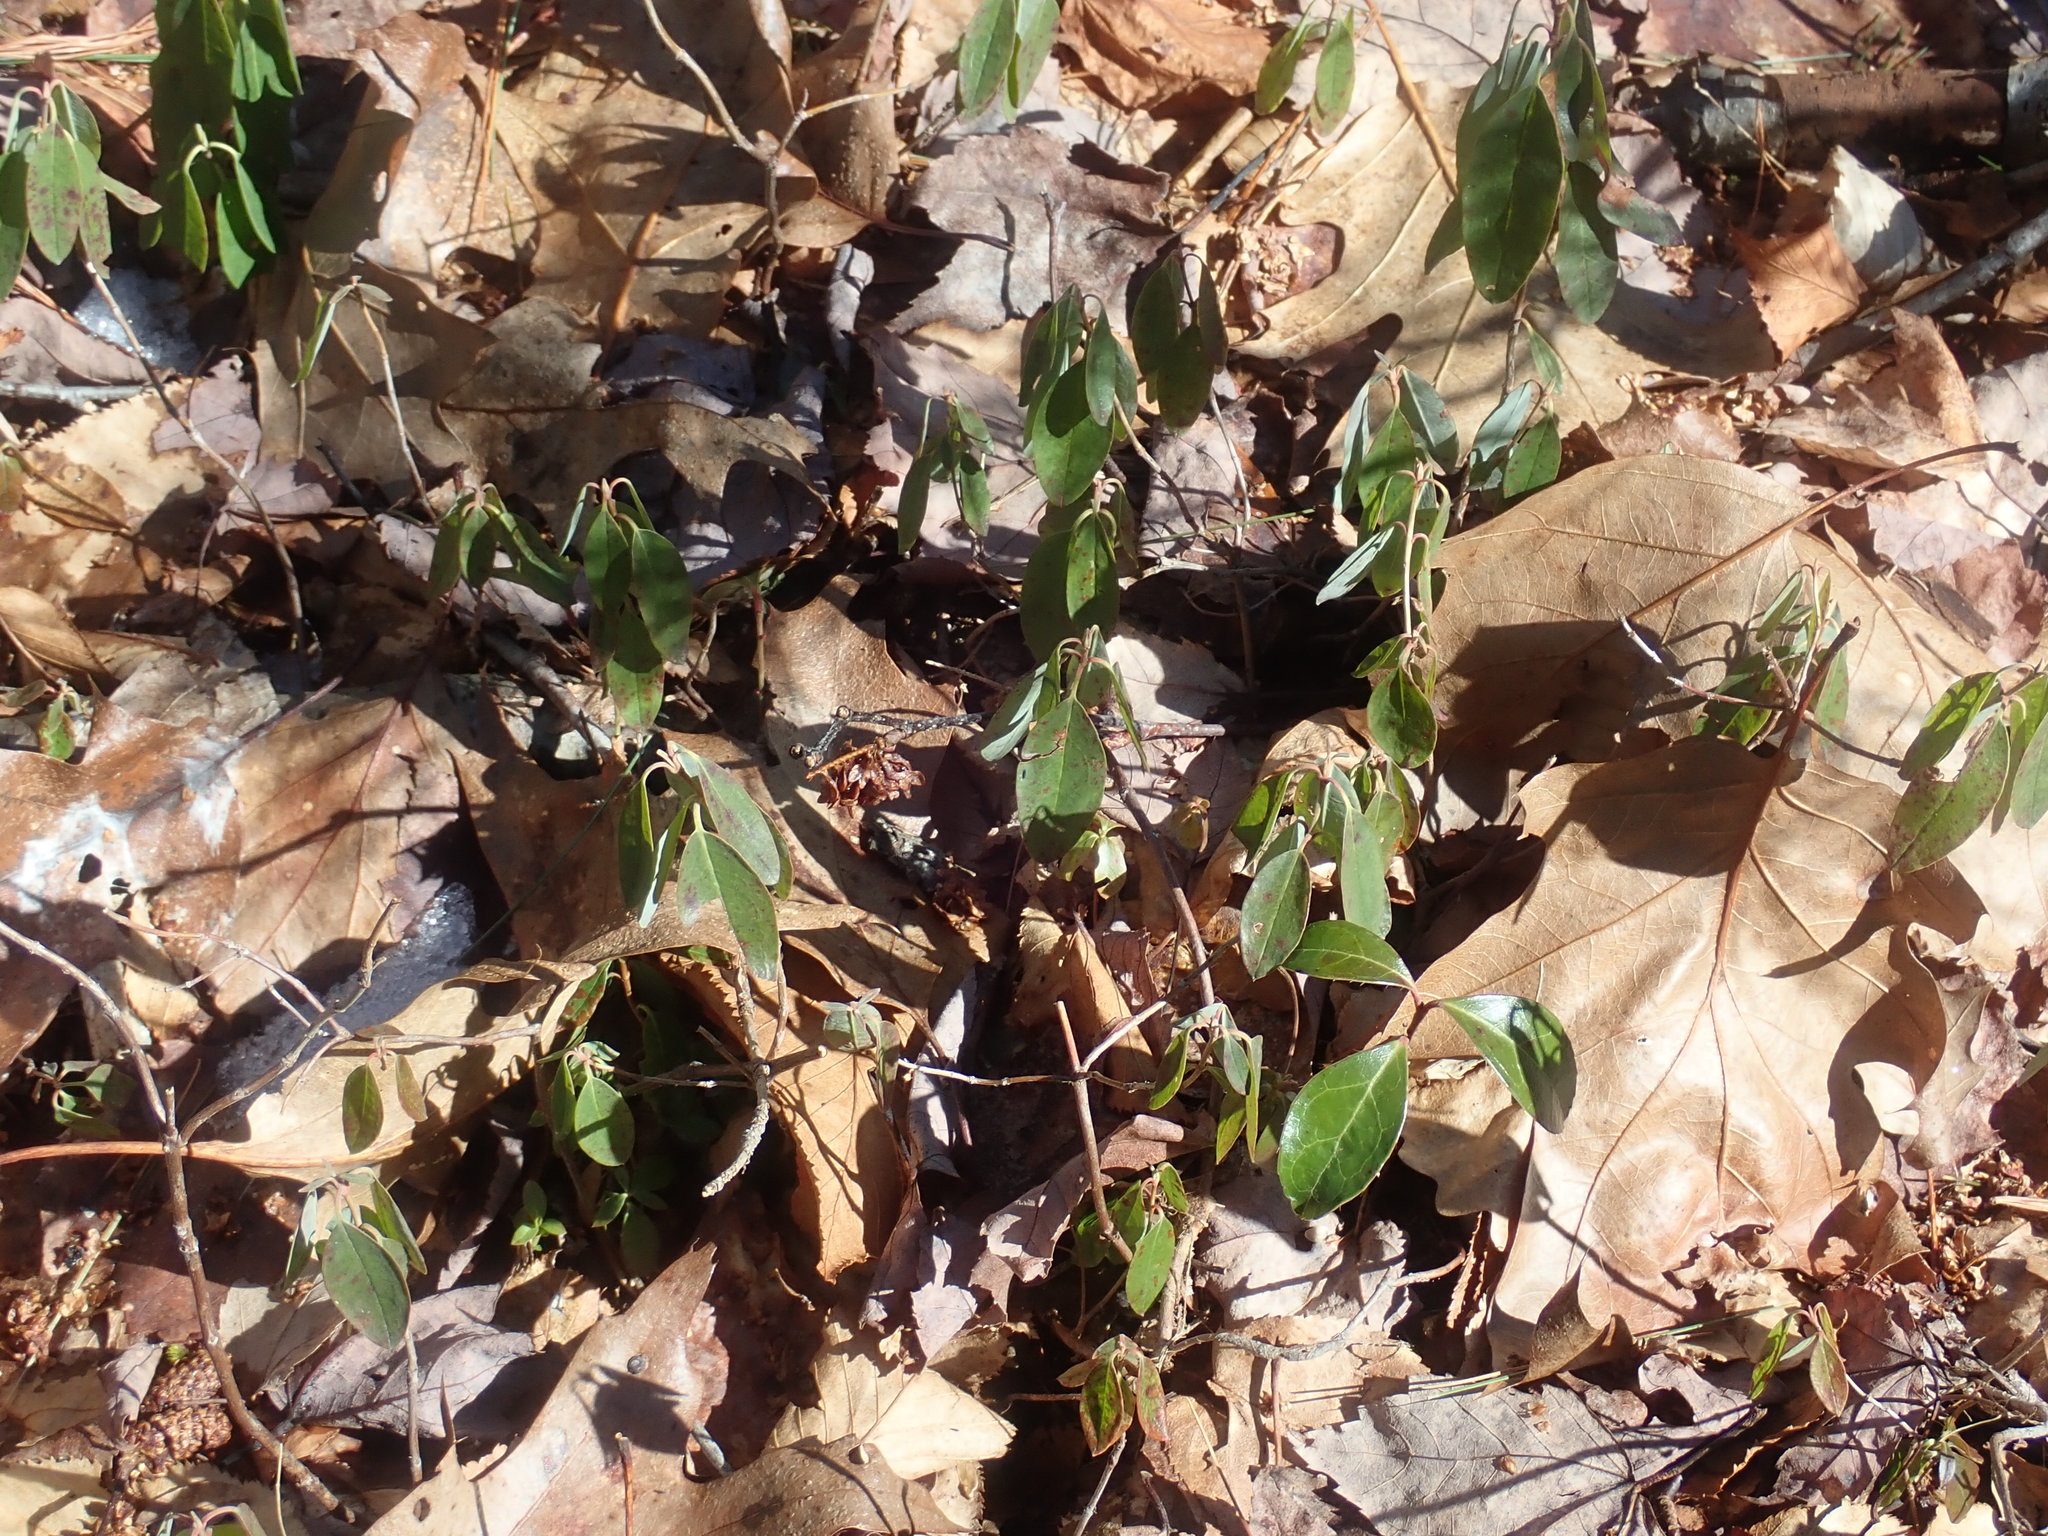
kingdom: Plantae
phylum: Tracheophyta
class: Magnoliopsida
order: Ericales
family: Ericaceae
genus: Kalmia
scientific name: Kalmia angustifolia
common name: Sheep-laurel
